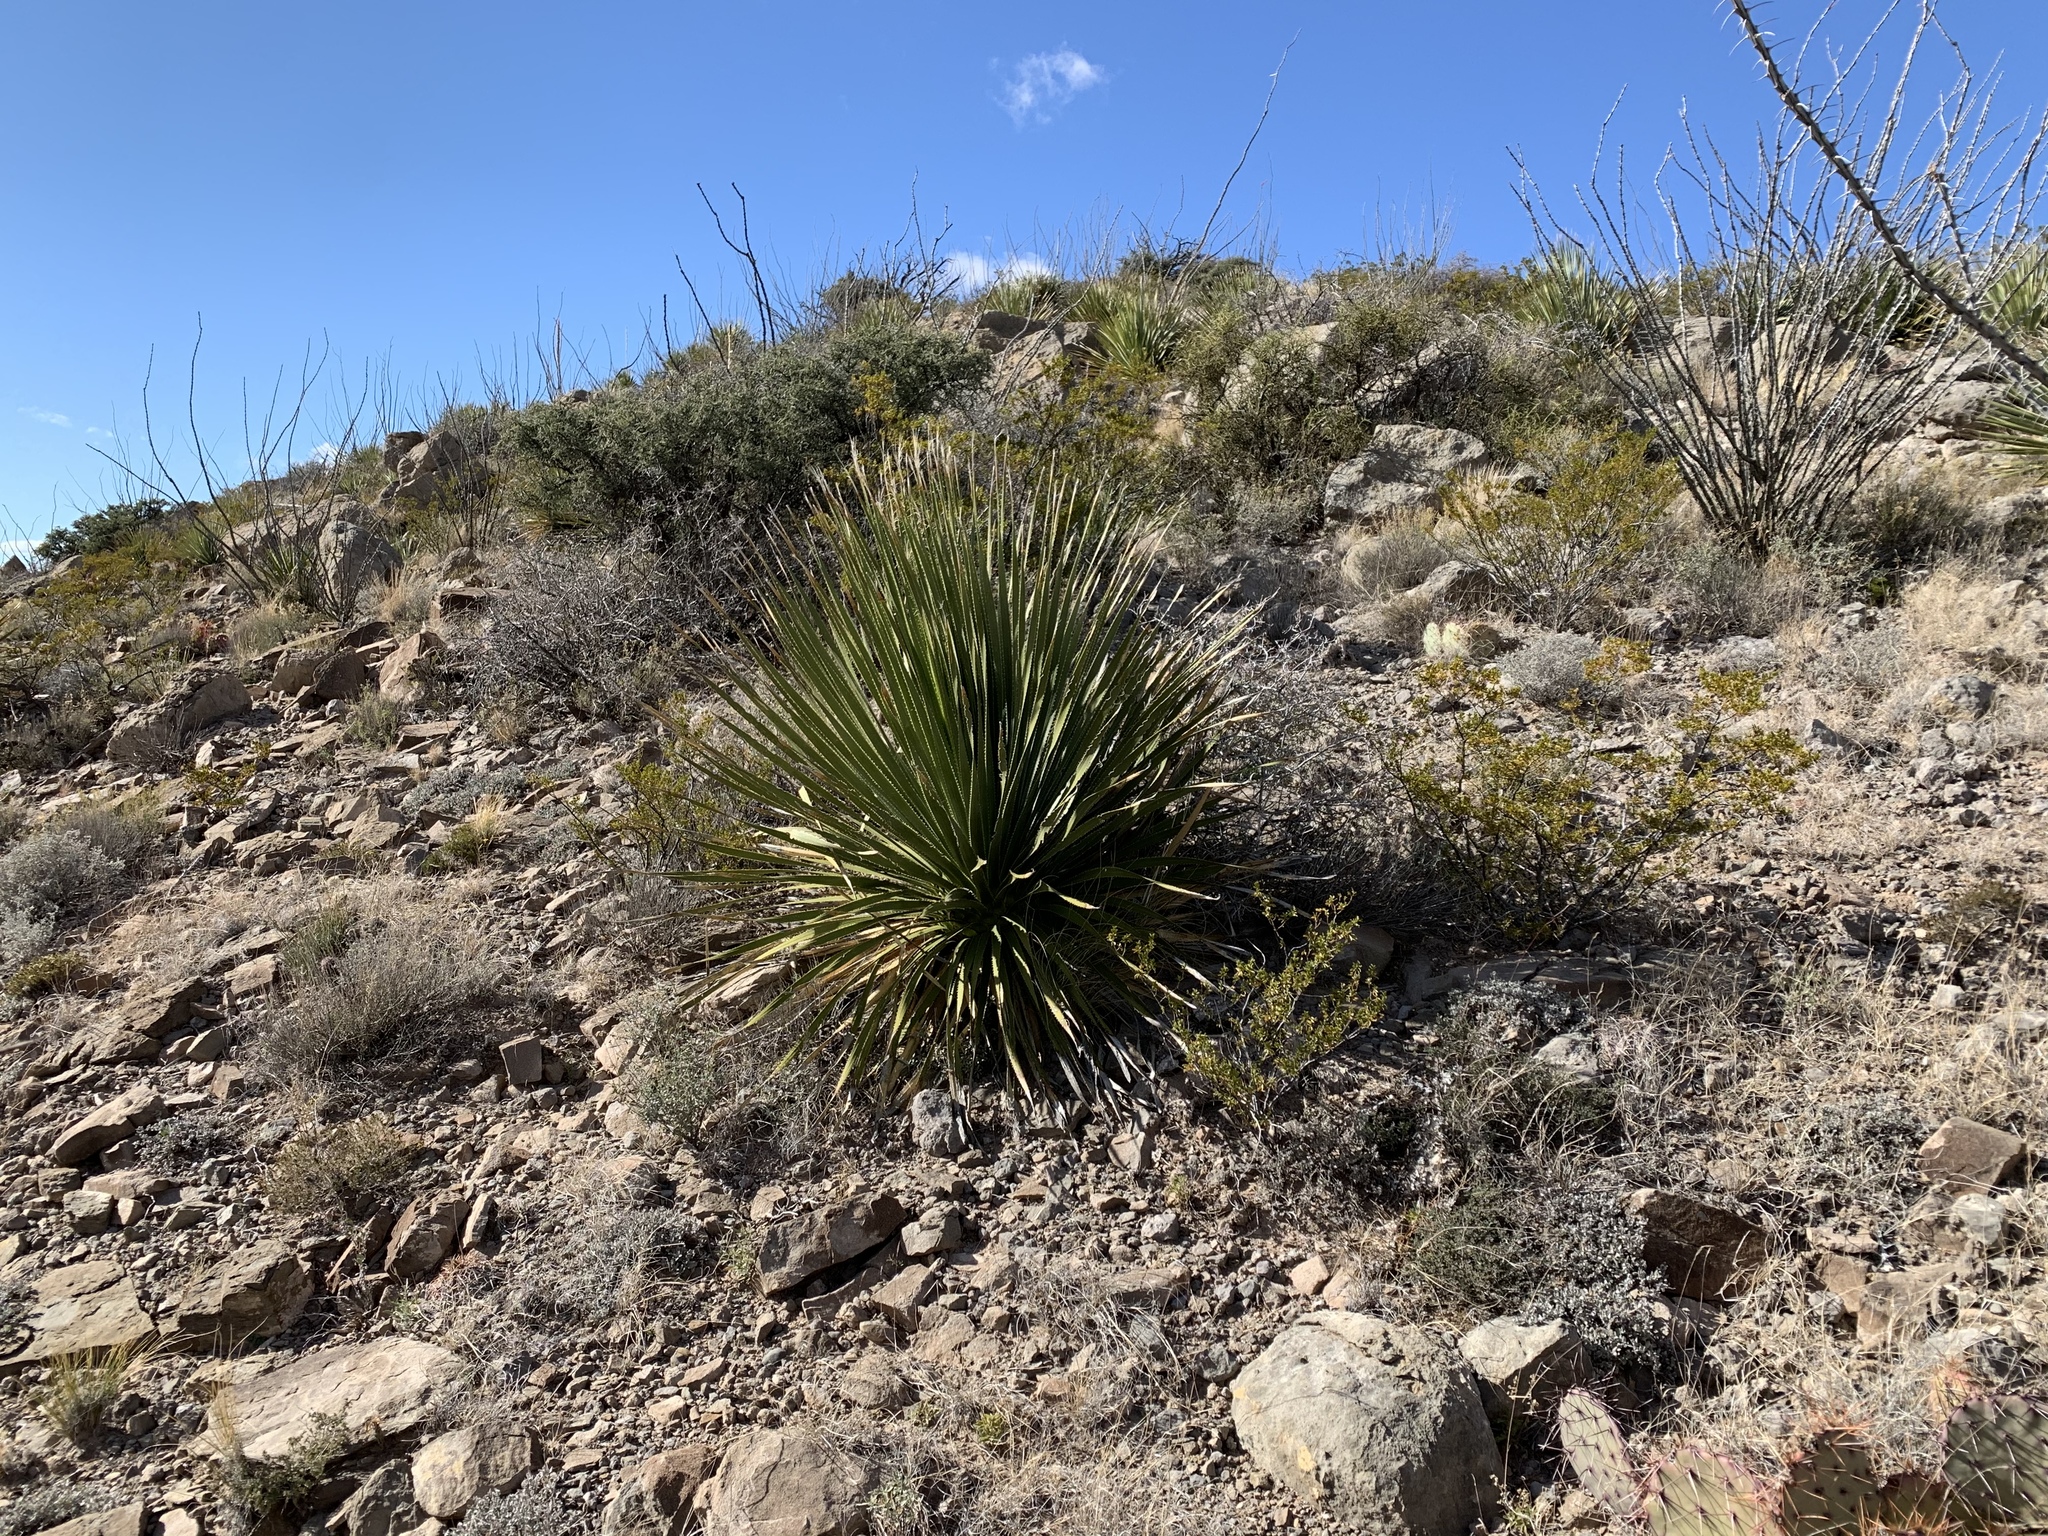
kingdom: Plantae
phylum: Tracheophyta
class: Liliopsida
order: Asparagales
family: Asparagaceae
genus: Dasylirion
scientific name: Dasylirion wheeleri
